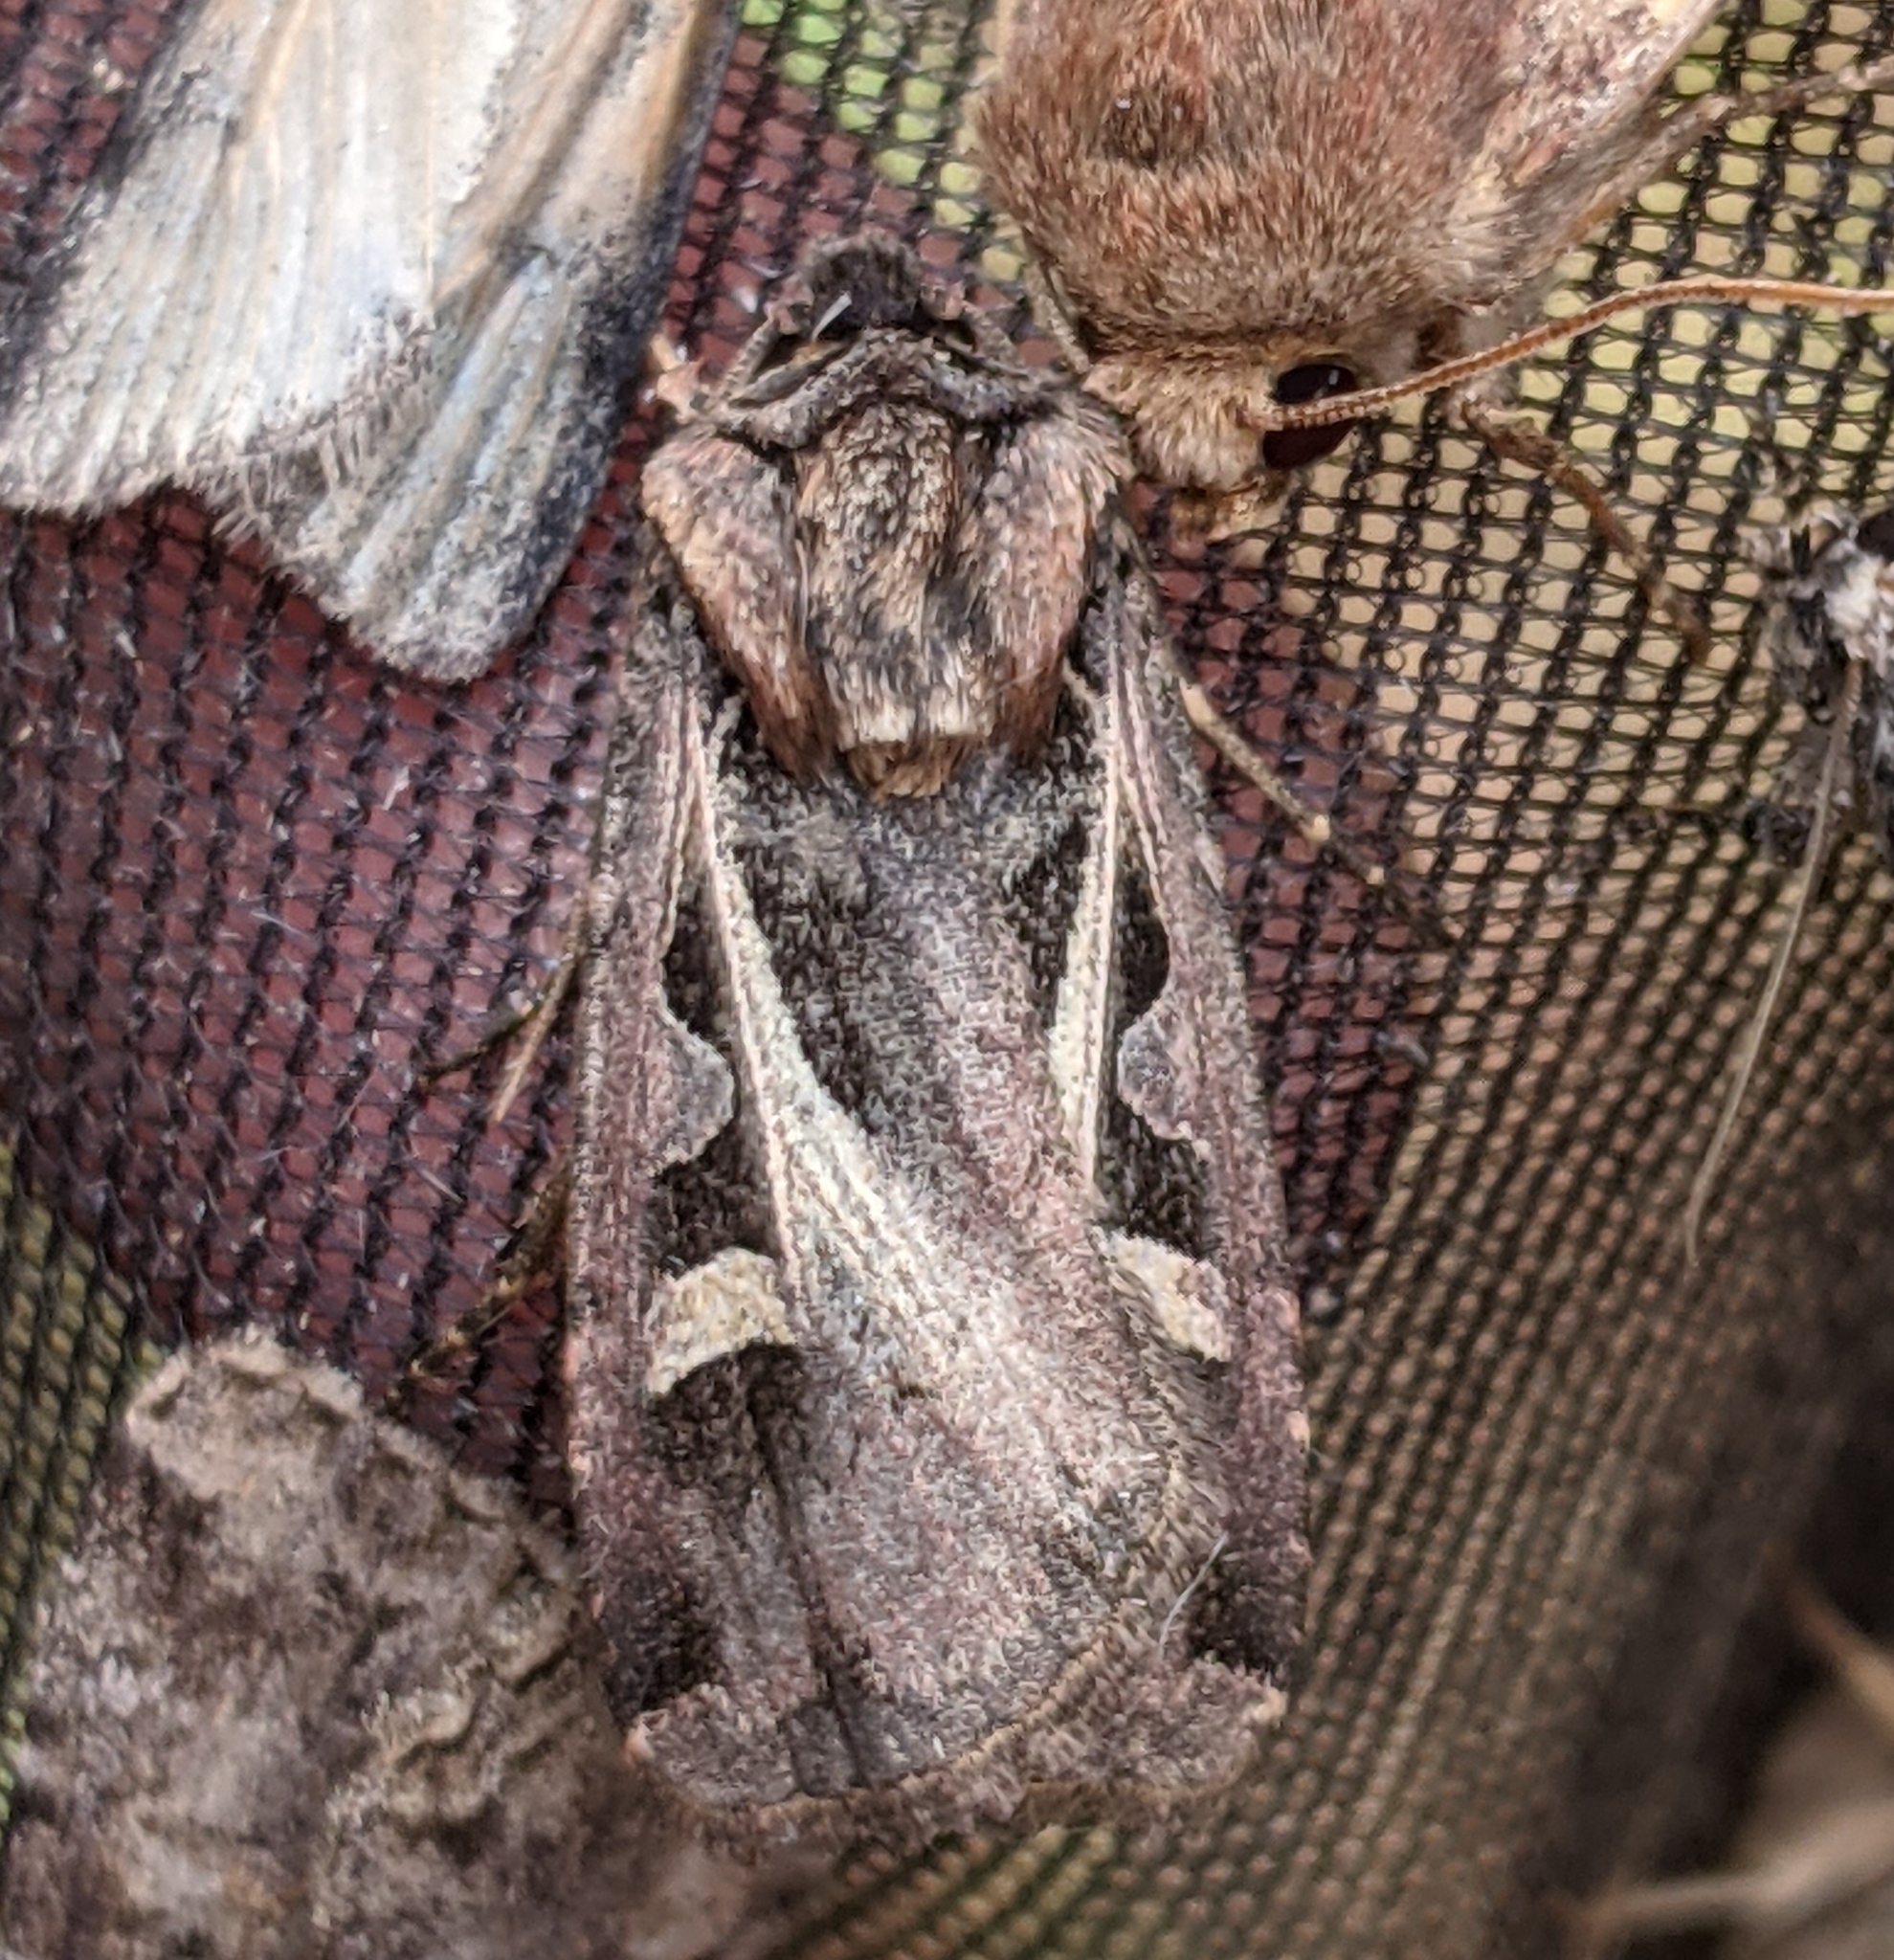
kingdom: Animalia
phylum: Arthropoda
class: Insecta
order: Lepidoptera
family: Noctuidae
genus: Feltia
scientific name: Feltia herilis
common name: Master's dart
